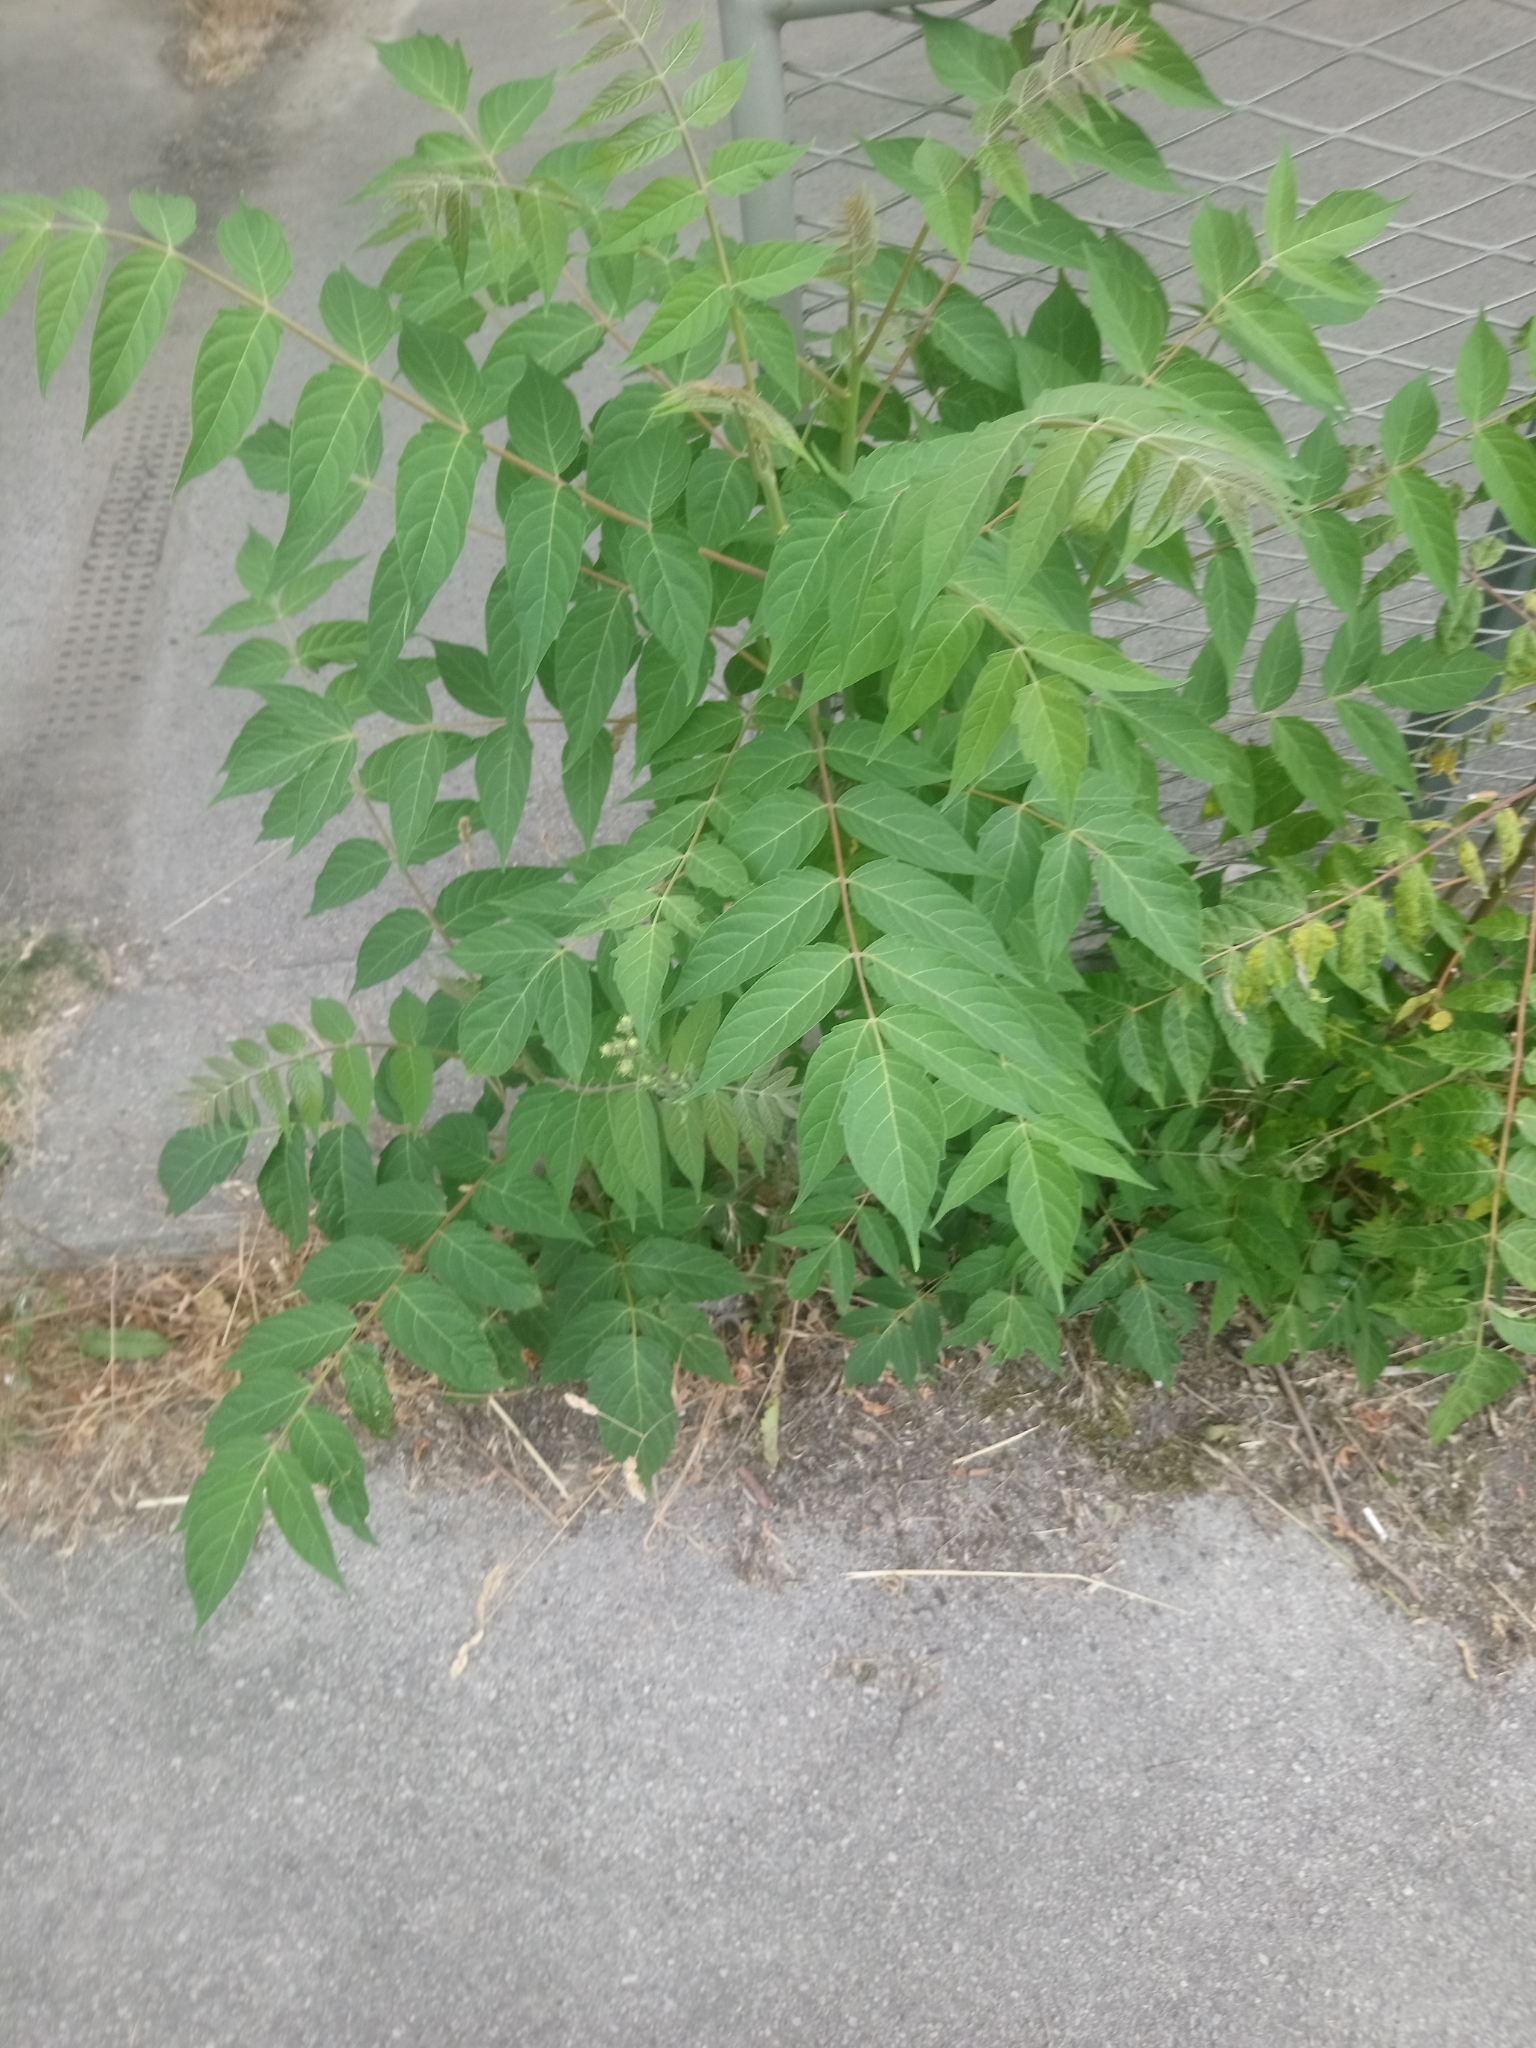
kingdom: Plantae
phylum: Tracheophyta
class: Magnoliopsida
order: Sapindales
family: Simaroubaceae
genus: Ailanthus
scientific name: Ailanthus altissima
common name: Tree-of-heaven
